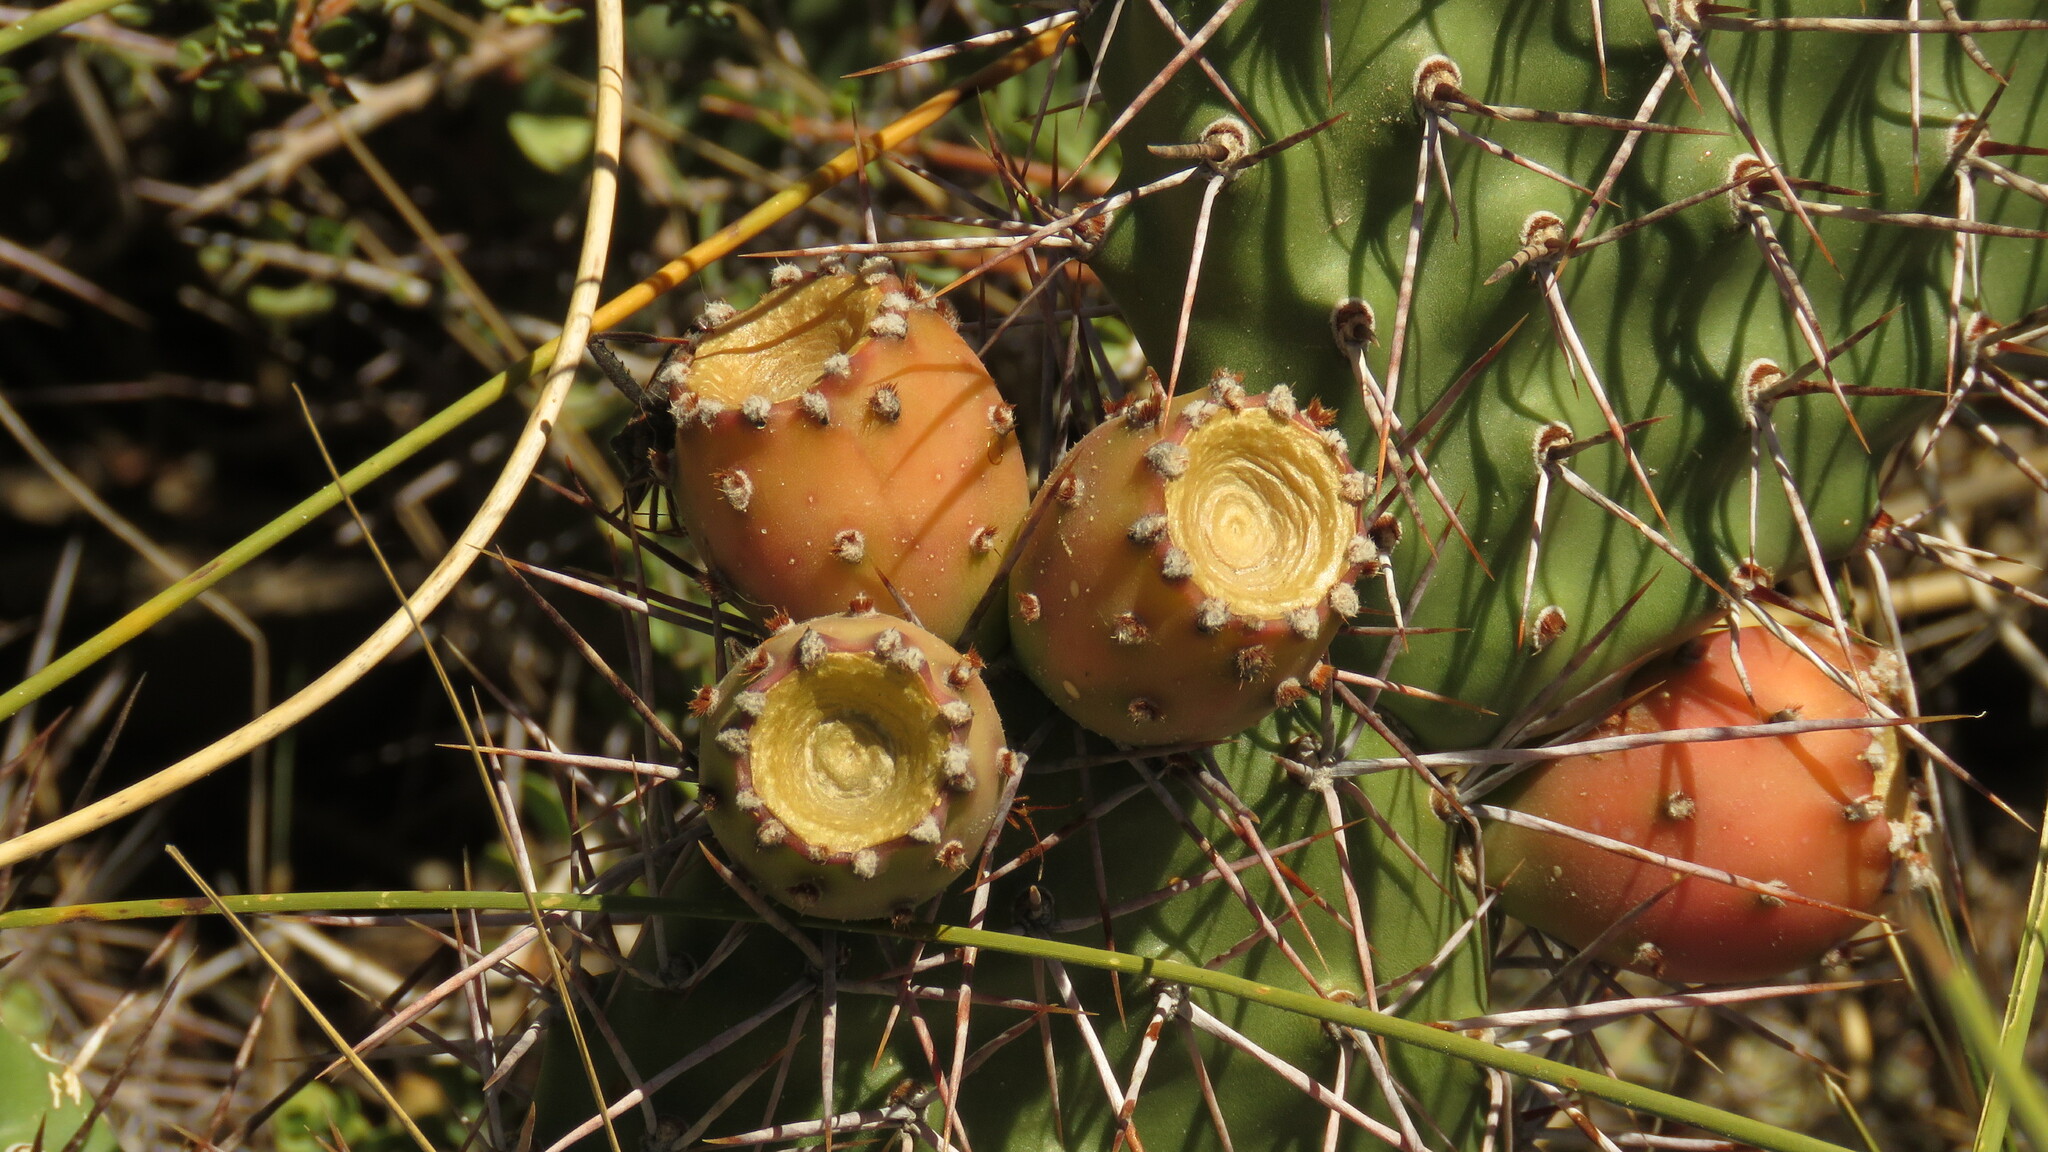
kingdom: Plantae
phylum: Tracheophyta
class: Magnoliopsida
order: Caryophyllales
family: Cactaceae
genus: Opuntia
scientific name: Opuntia sulphurea
